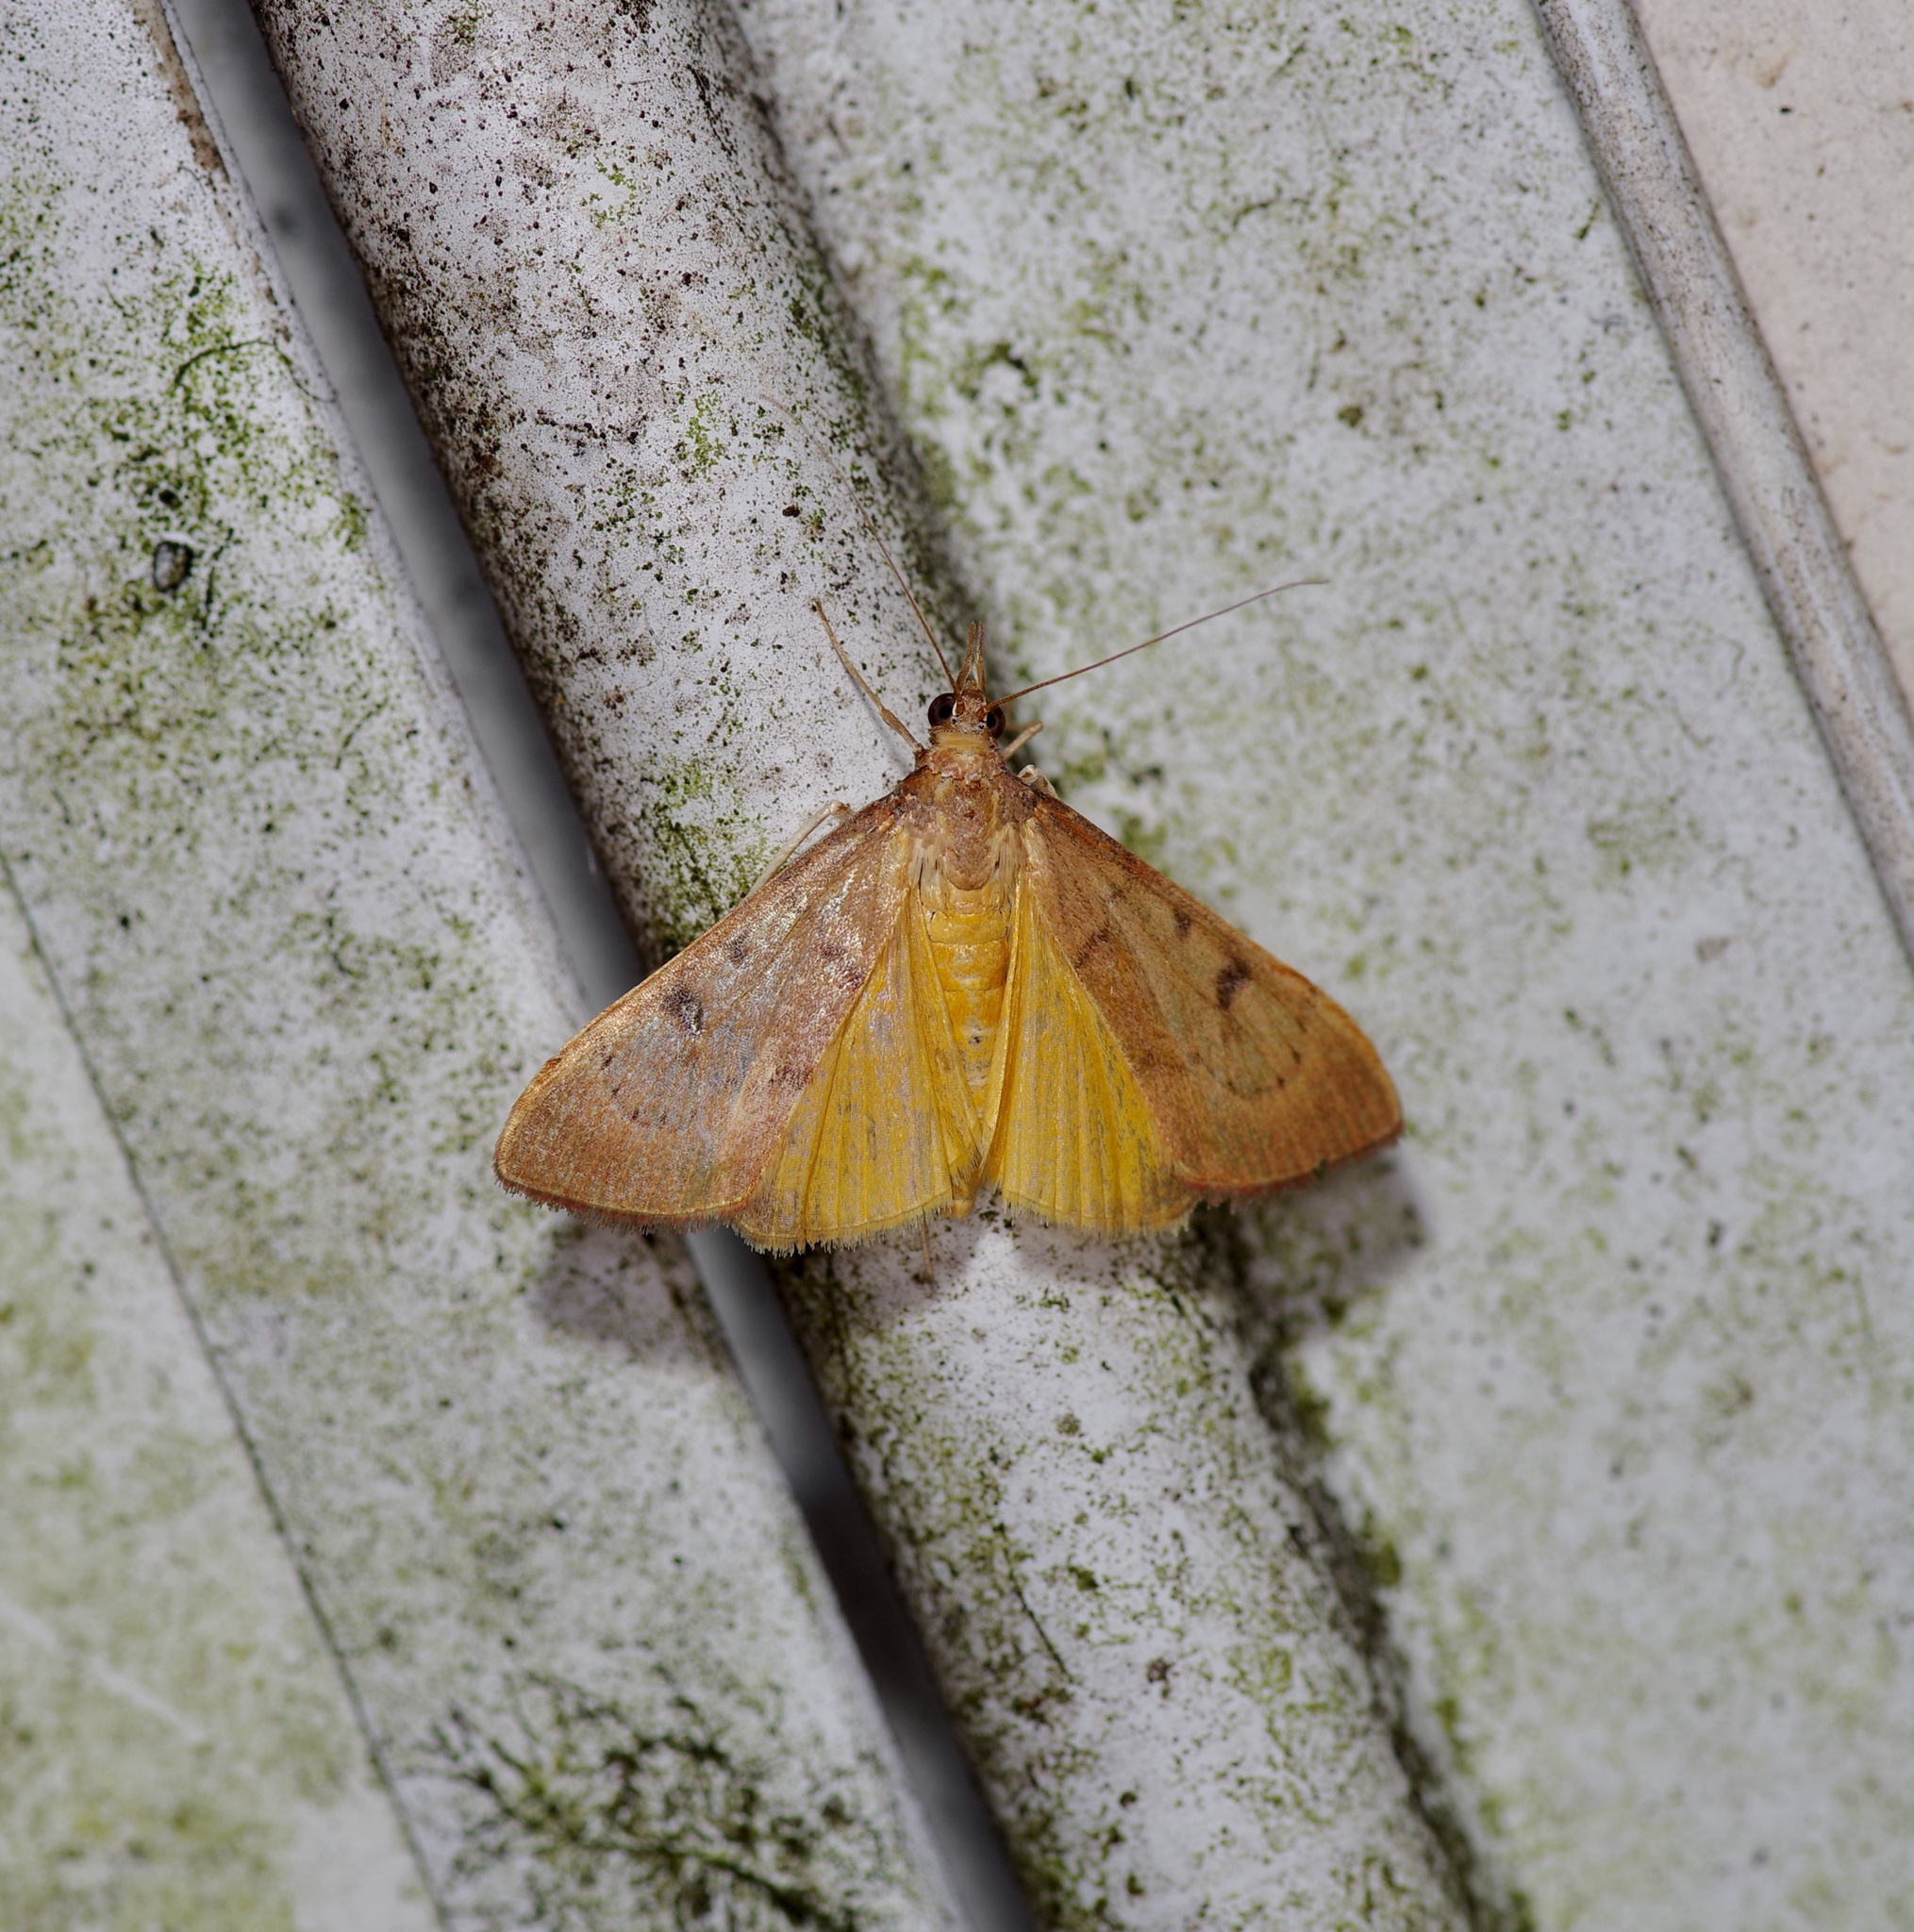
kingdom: Animalia
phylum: Arthropoda
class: Insecta
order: Lepidoptera
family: Crambidae
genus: Uresiphita
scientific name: Uresiphita reversalis
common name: Genista broom moth
